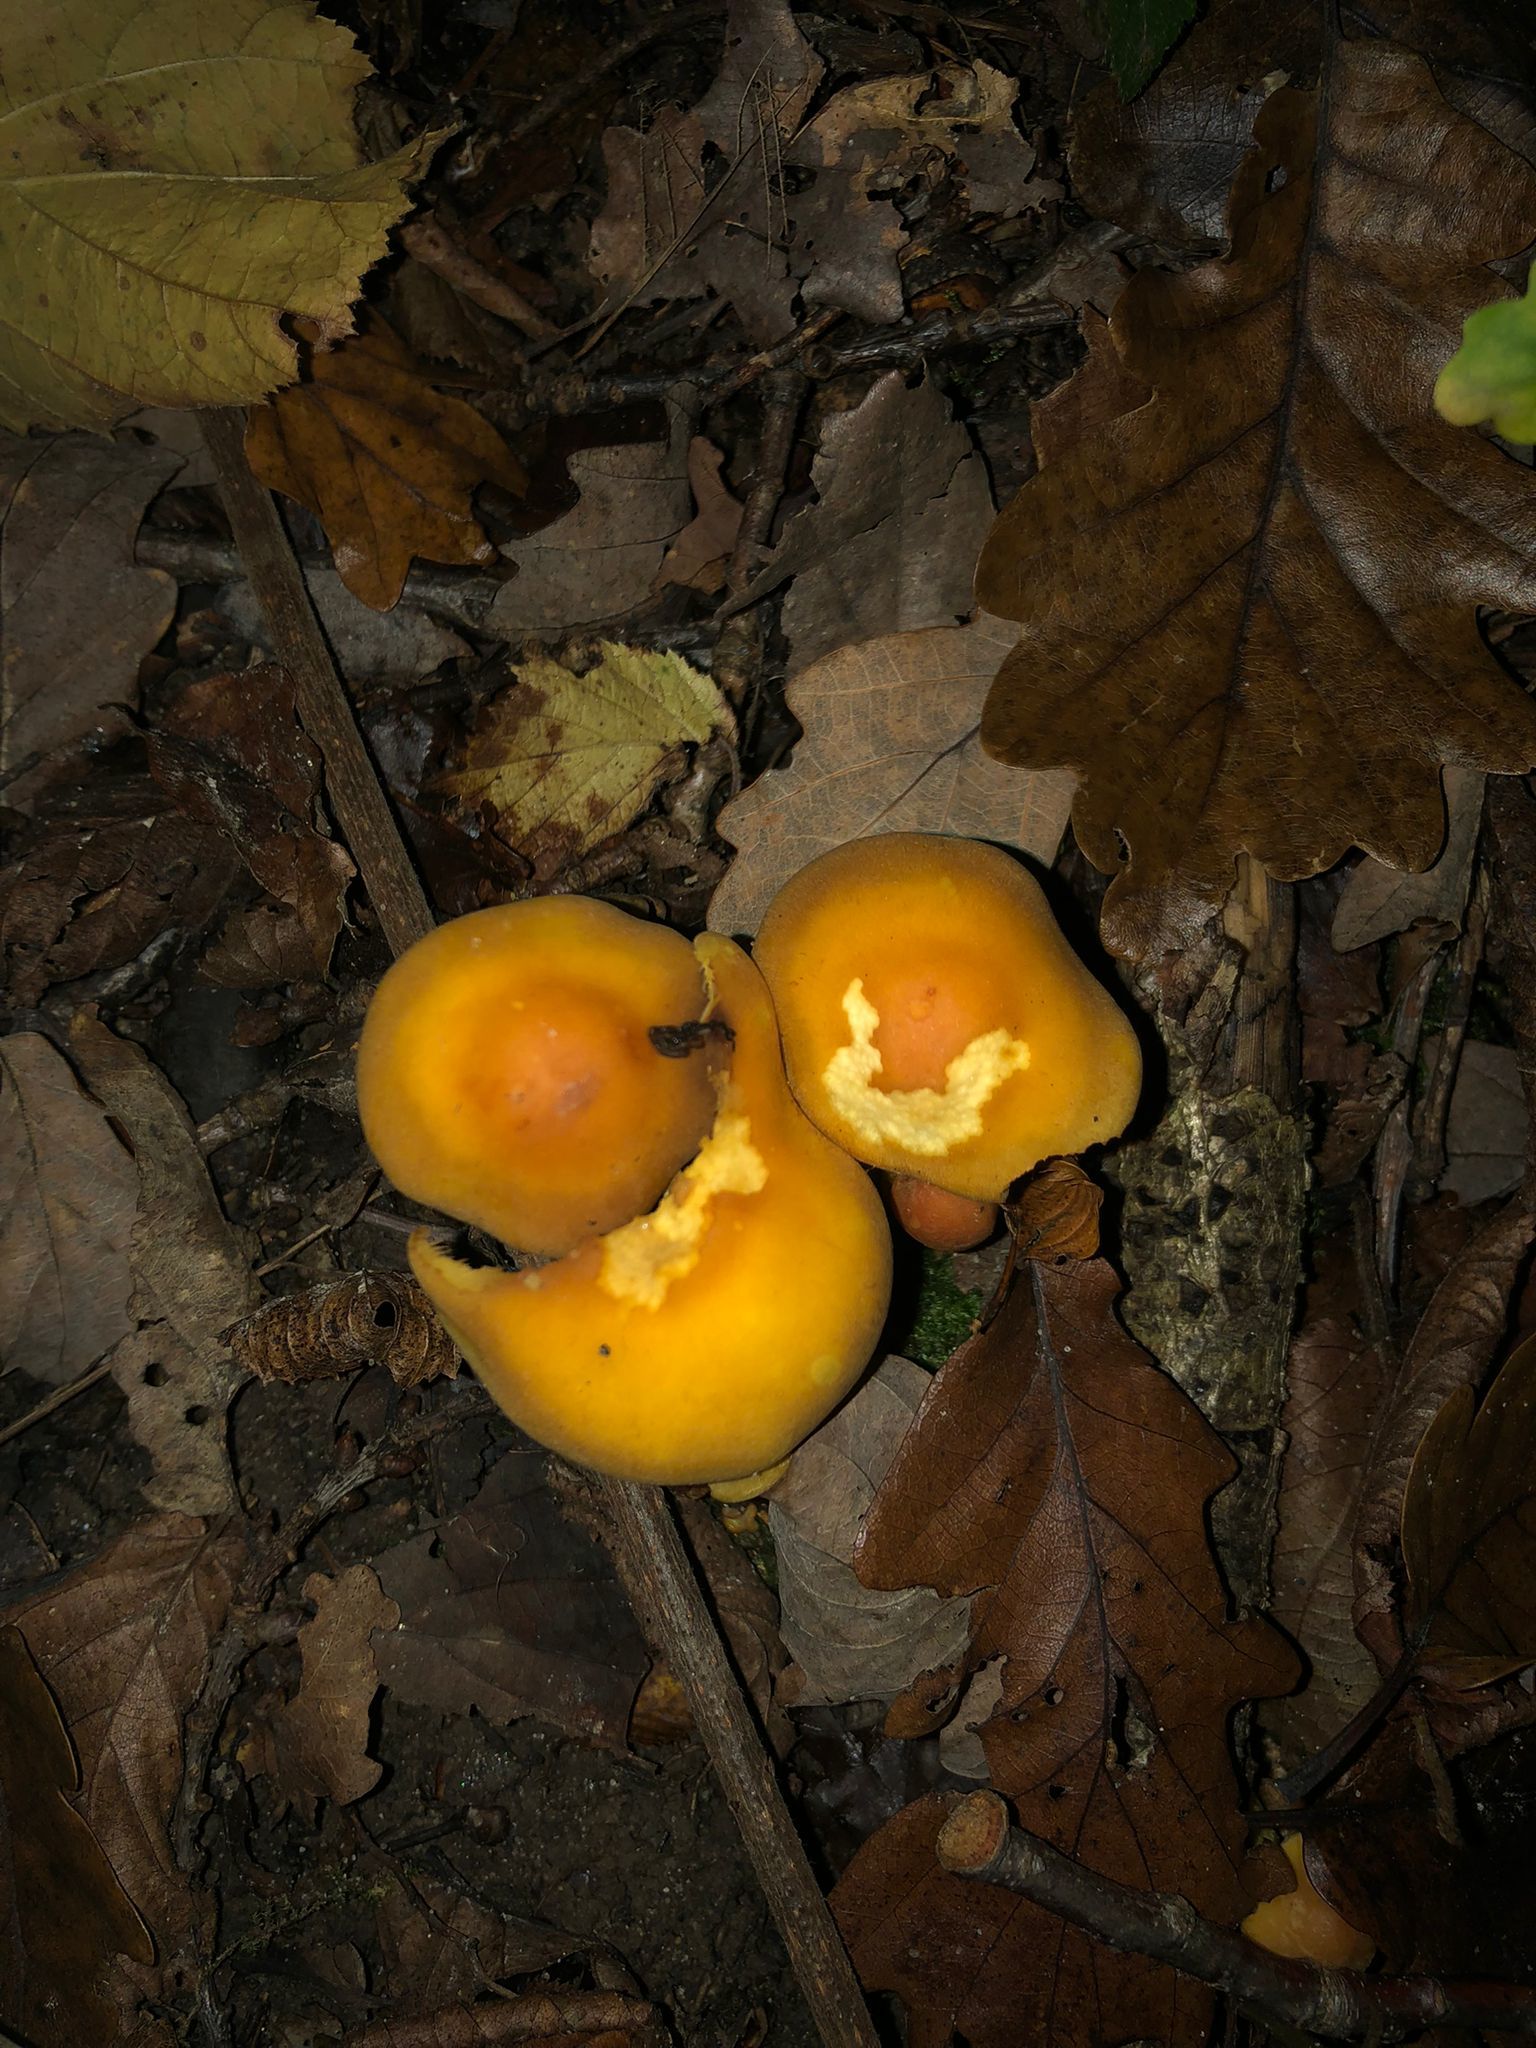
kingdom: Fungi
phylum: Basidiomycota
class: Agaricomycetes
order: Agaricales
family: Strophariaceae
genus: Hypholoma
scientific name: Hypholoma fasciculare
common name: Sulphur tuft
